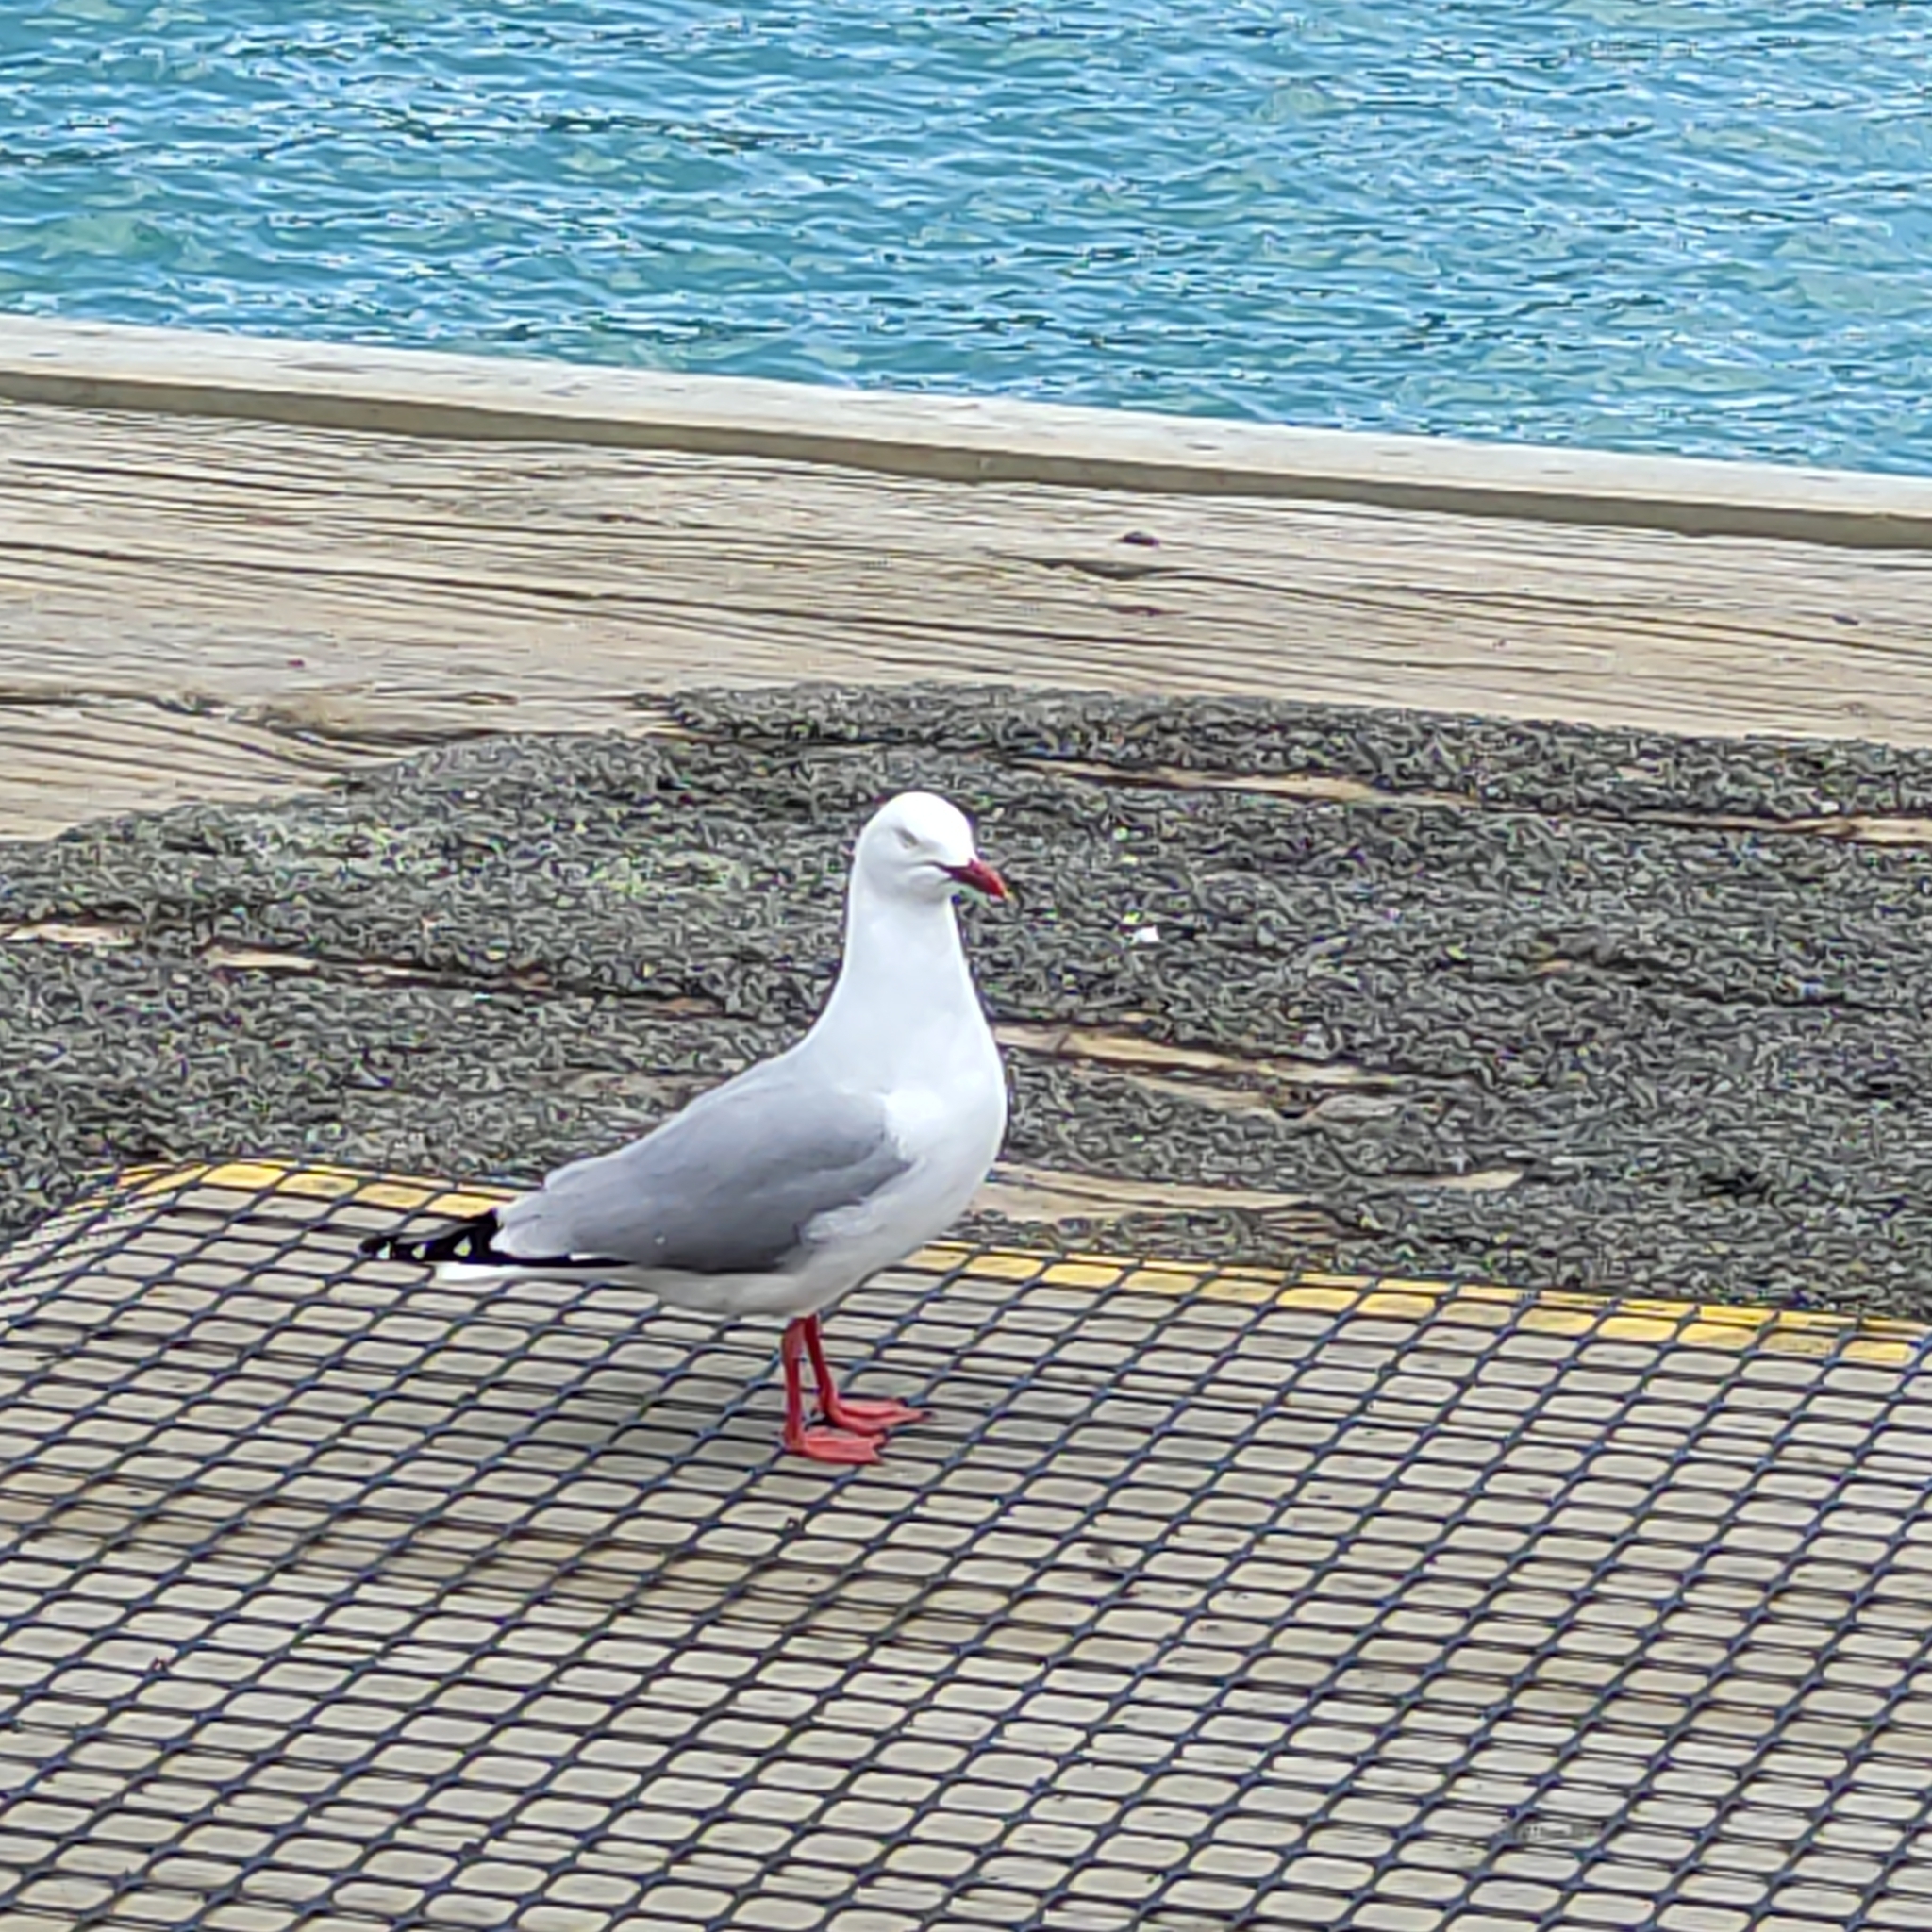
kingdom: Animalia
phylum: Chordata
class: Aves
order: Charadriiformes
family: Laridae
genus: Chroicocephalus
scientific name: Chroicocephalus novaehollandiae
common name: Silver gull
